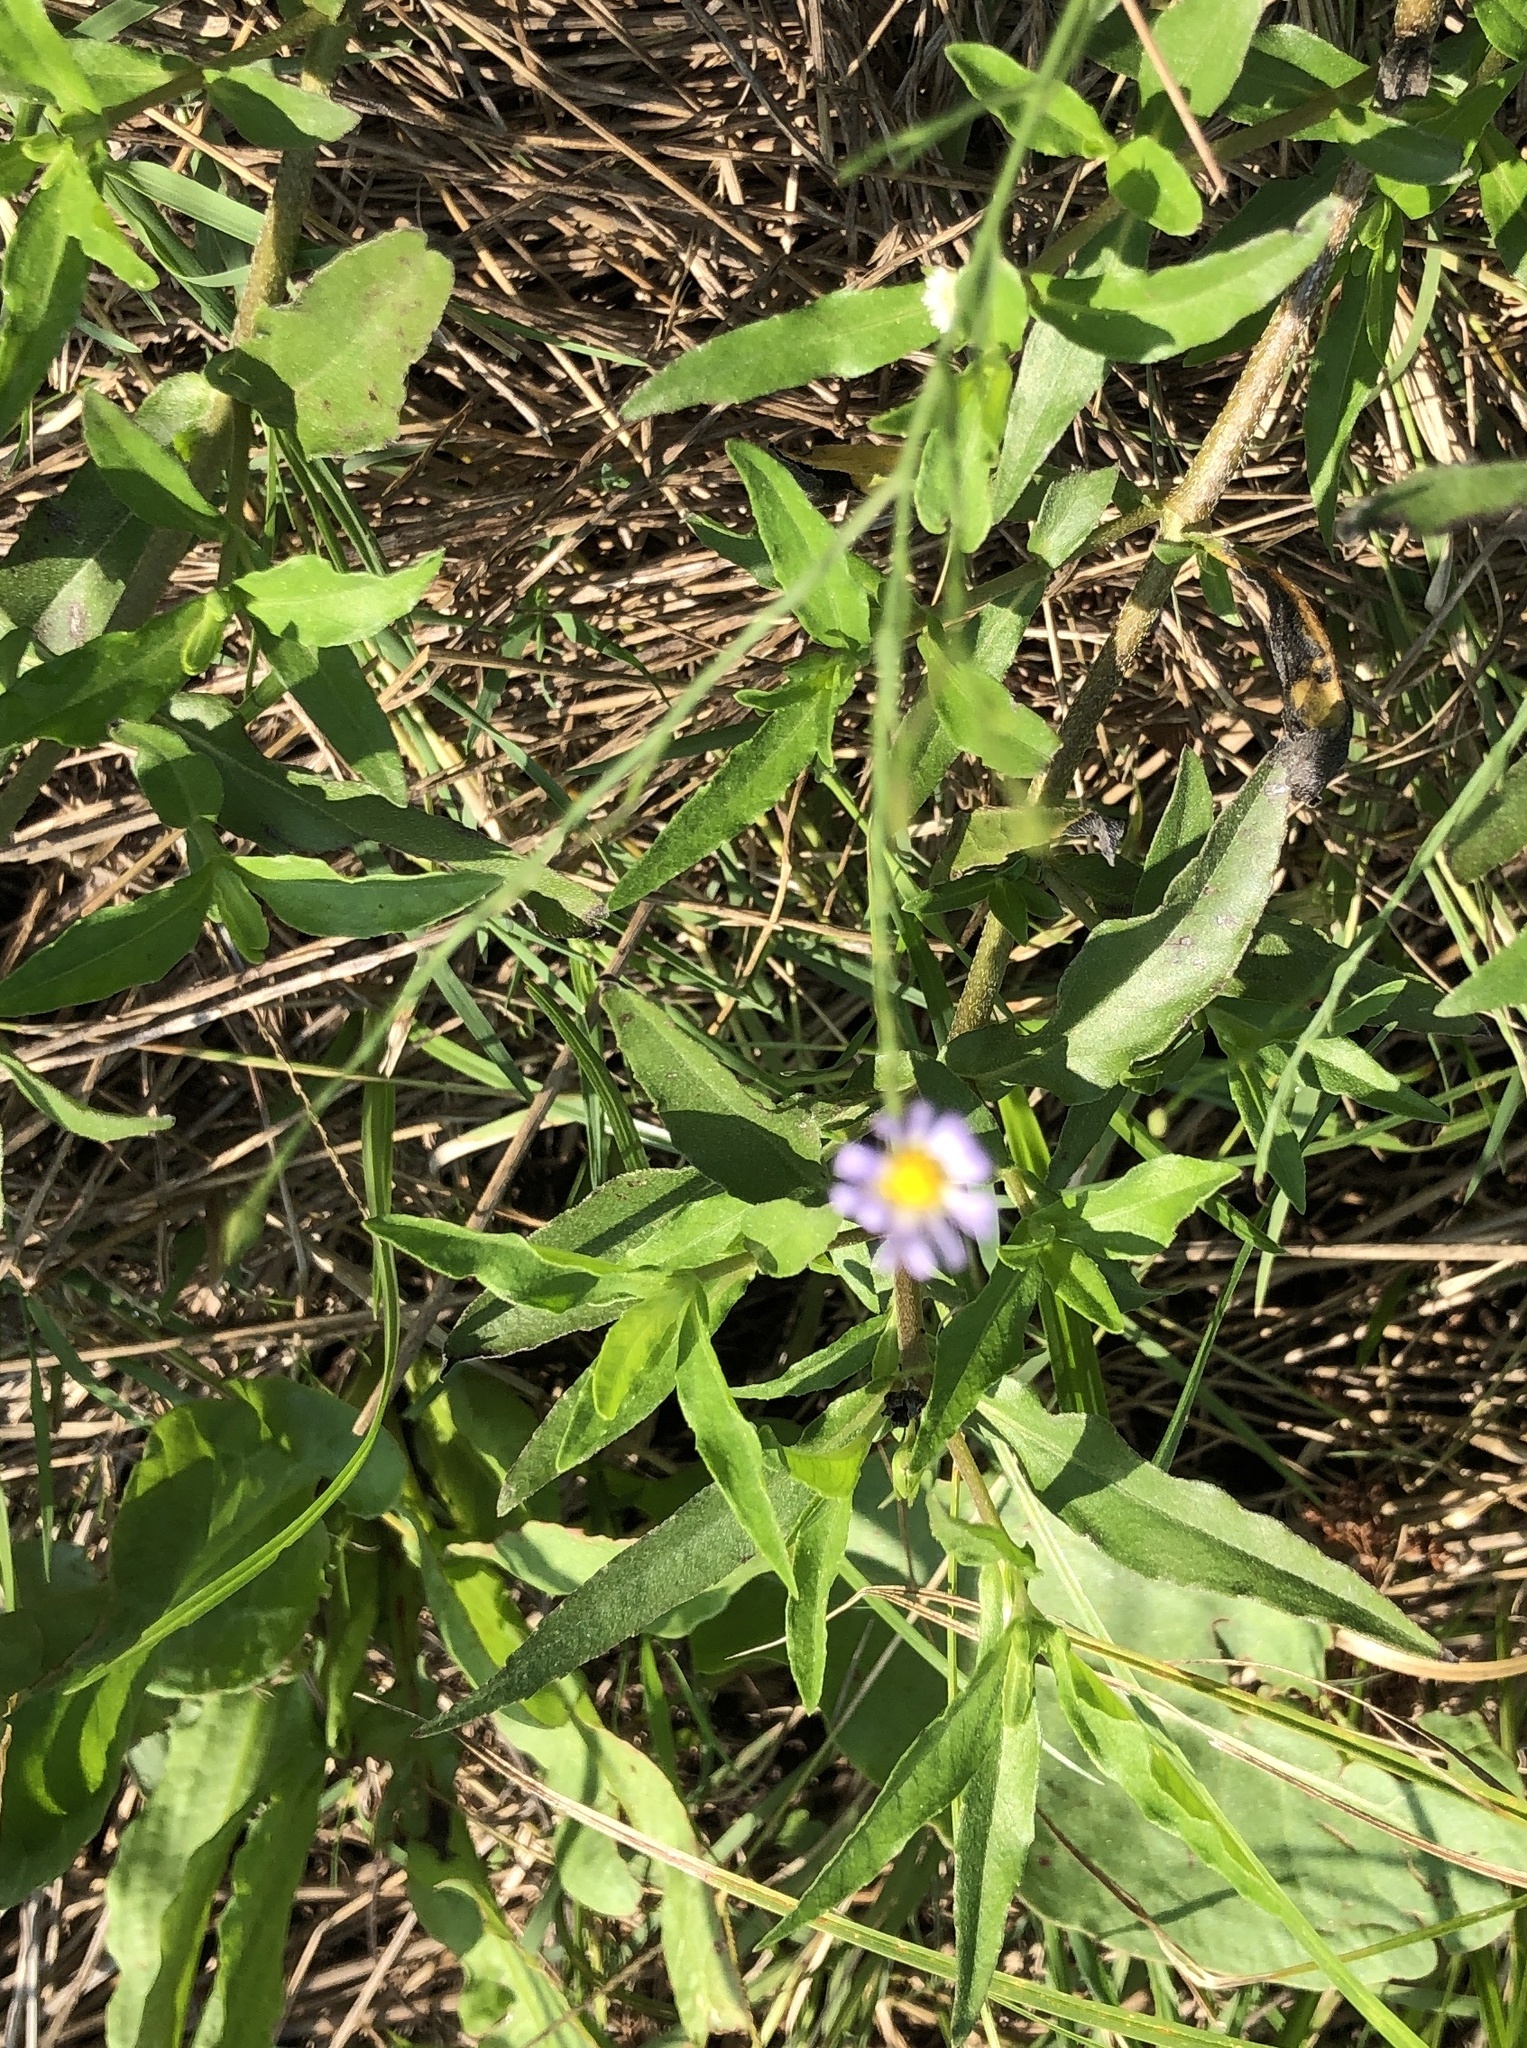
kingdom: Plantae
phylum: Tracheophyta
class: Magnoliopsida
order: Asterales
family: Asteraceae
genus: Symphyotrichum
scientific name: Symphyotrichum divaricatum
